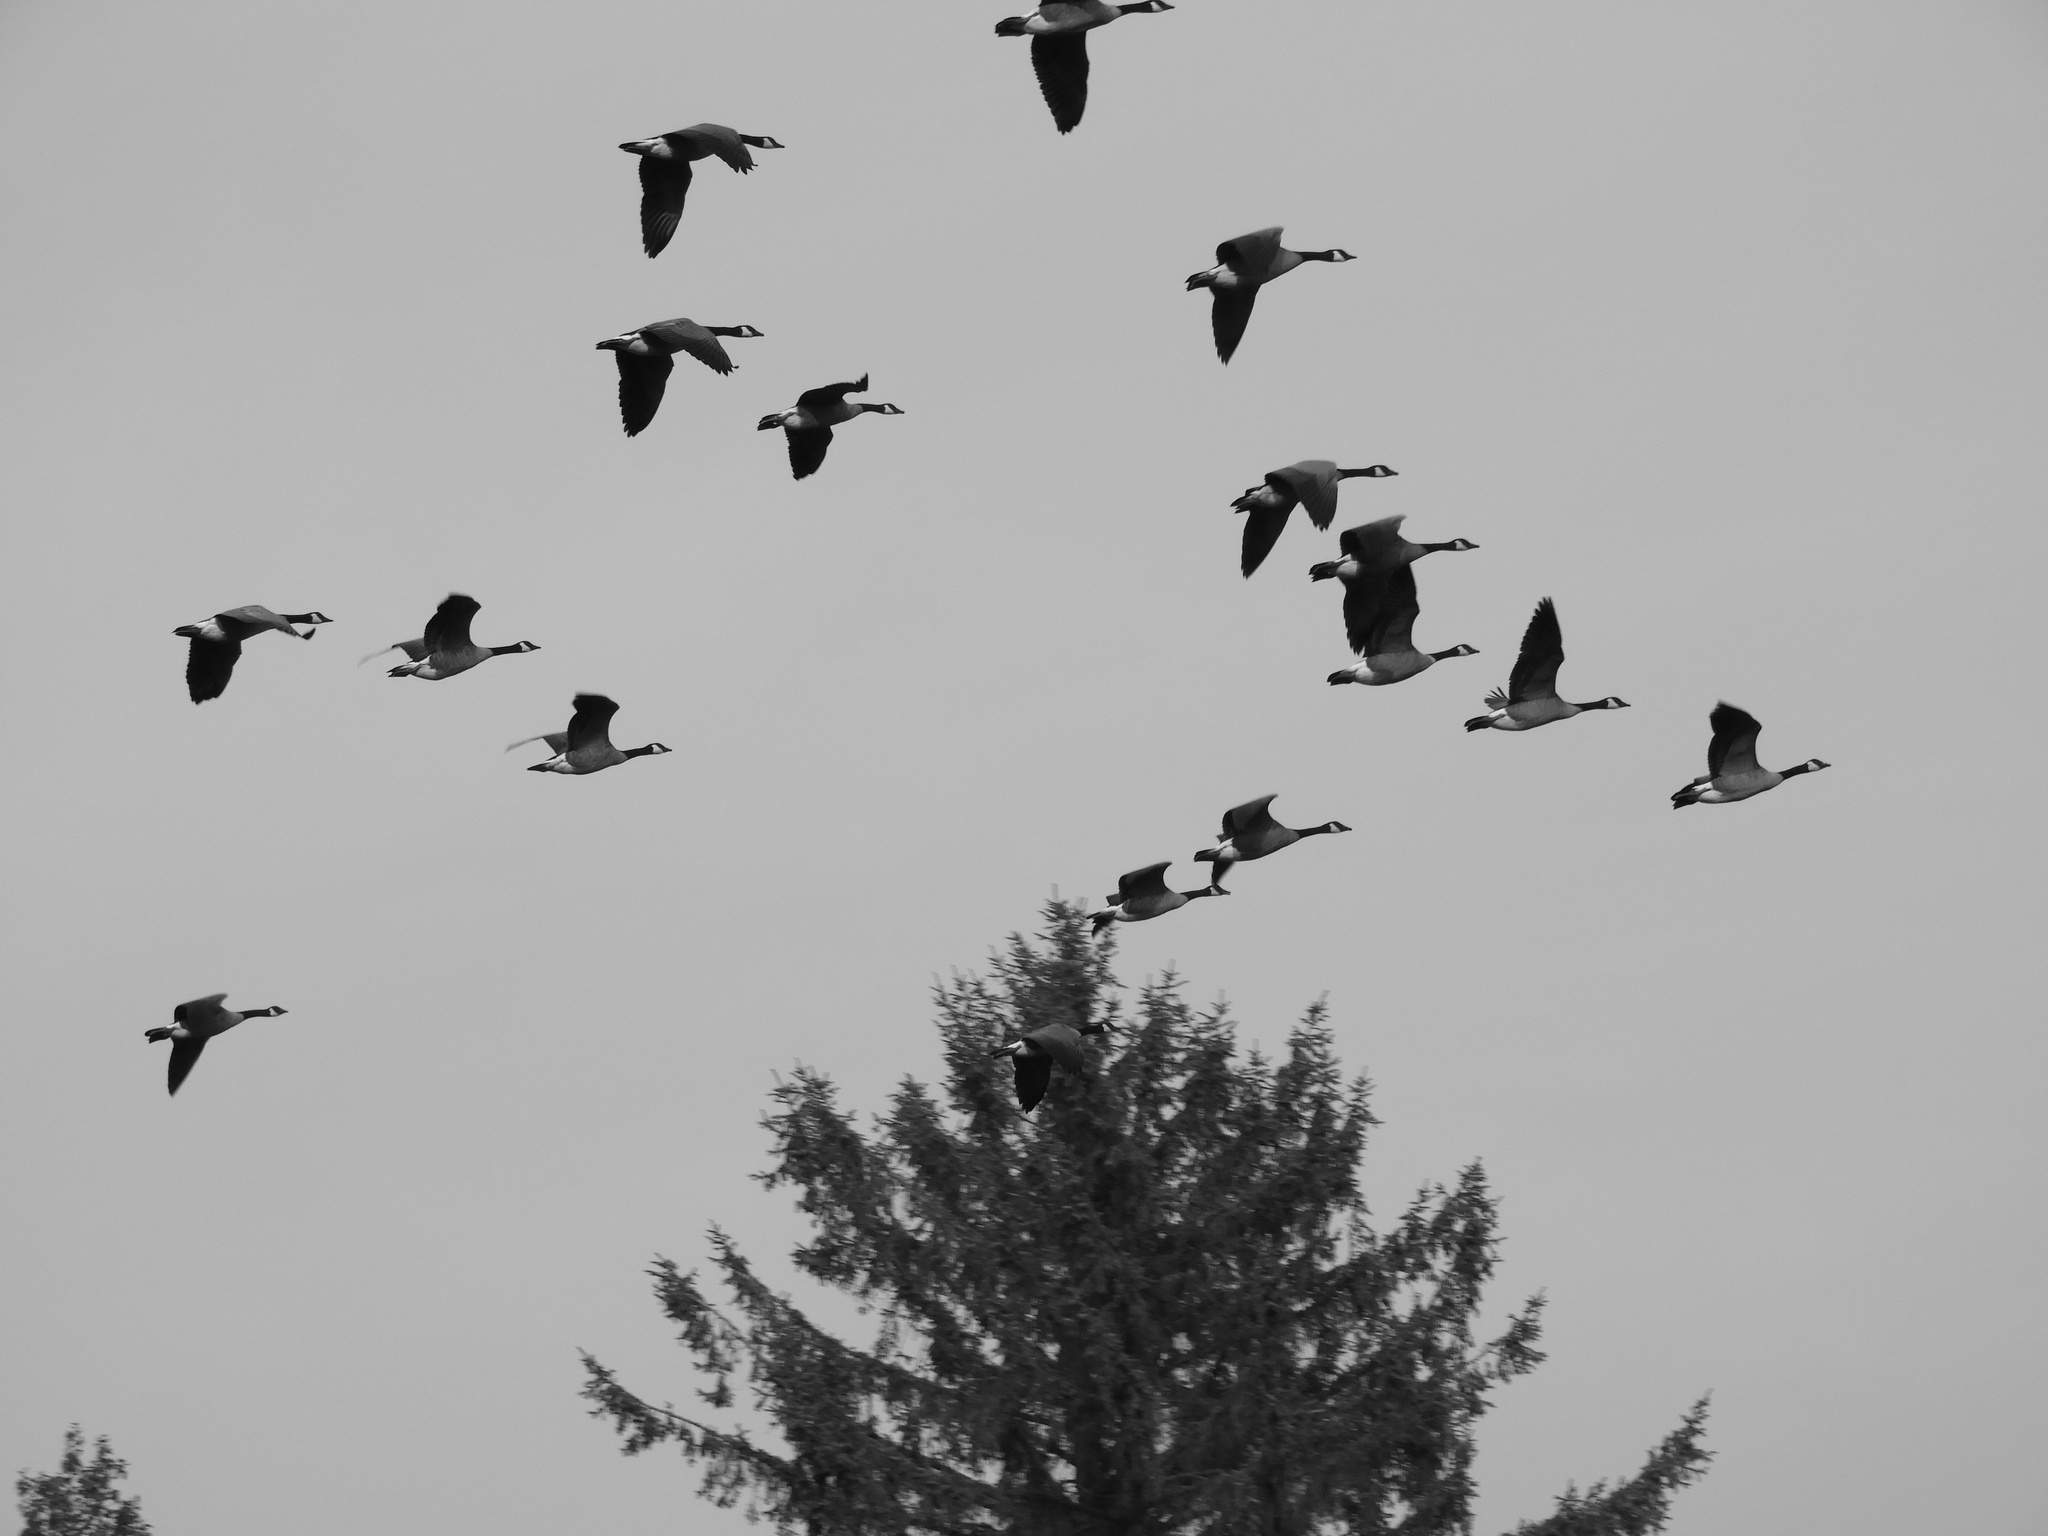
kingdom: Animalia
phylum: Chordata
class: Aves
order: Anseriformes
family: Anatidae
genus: Branta
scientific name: Branta canadensis
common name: Canada goose
